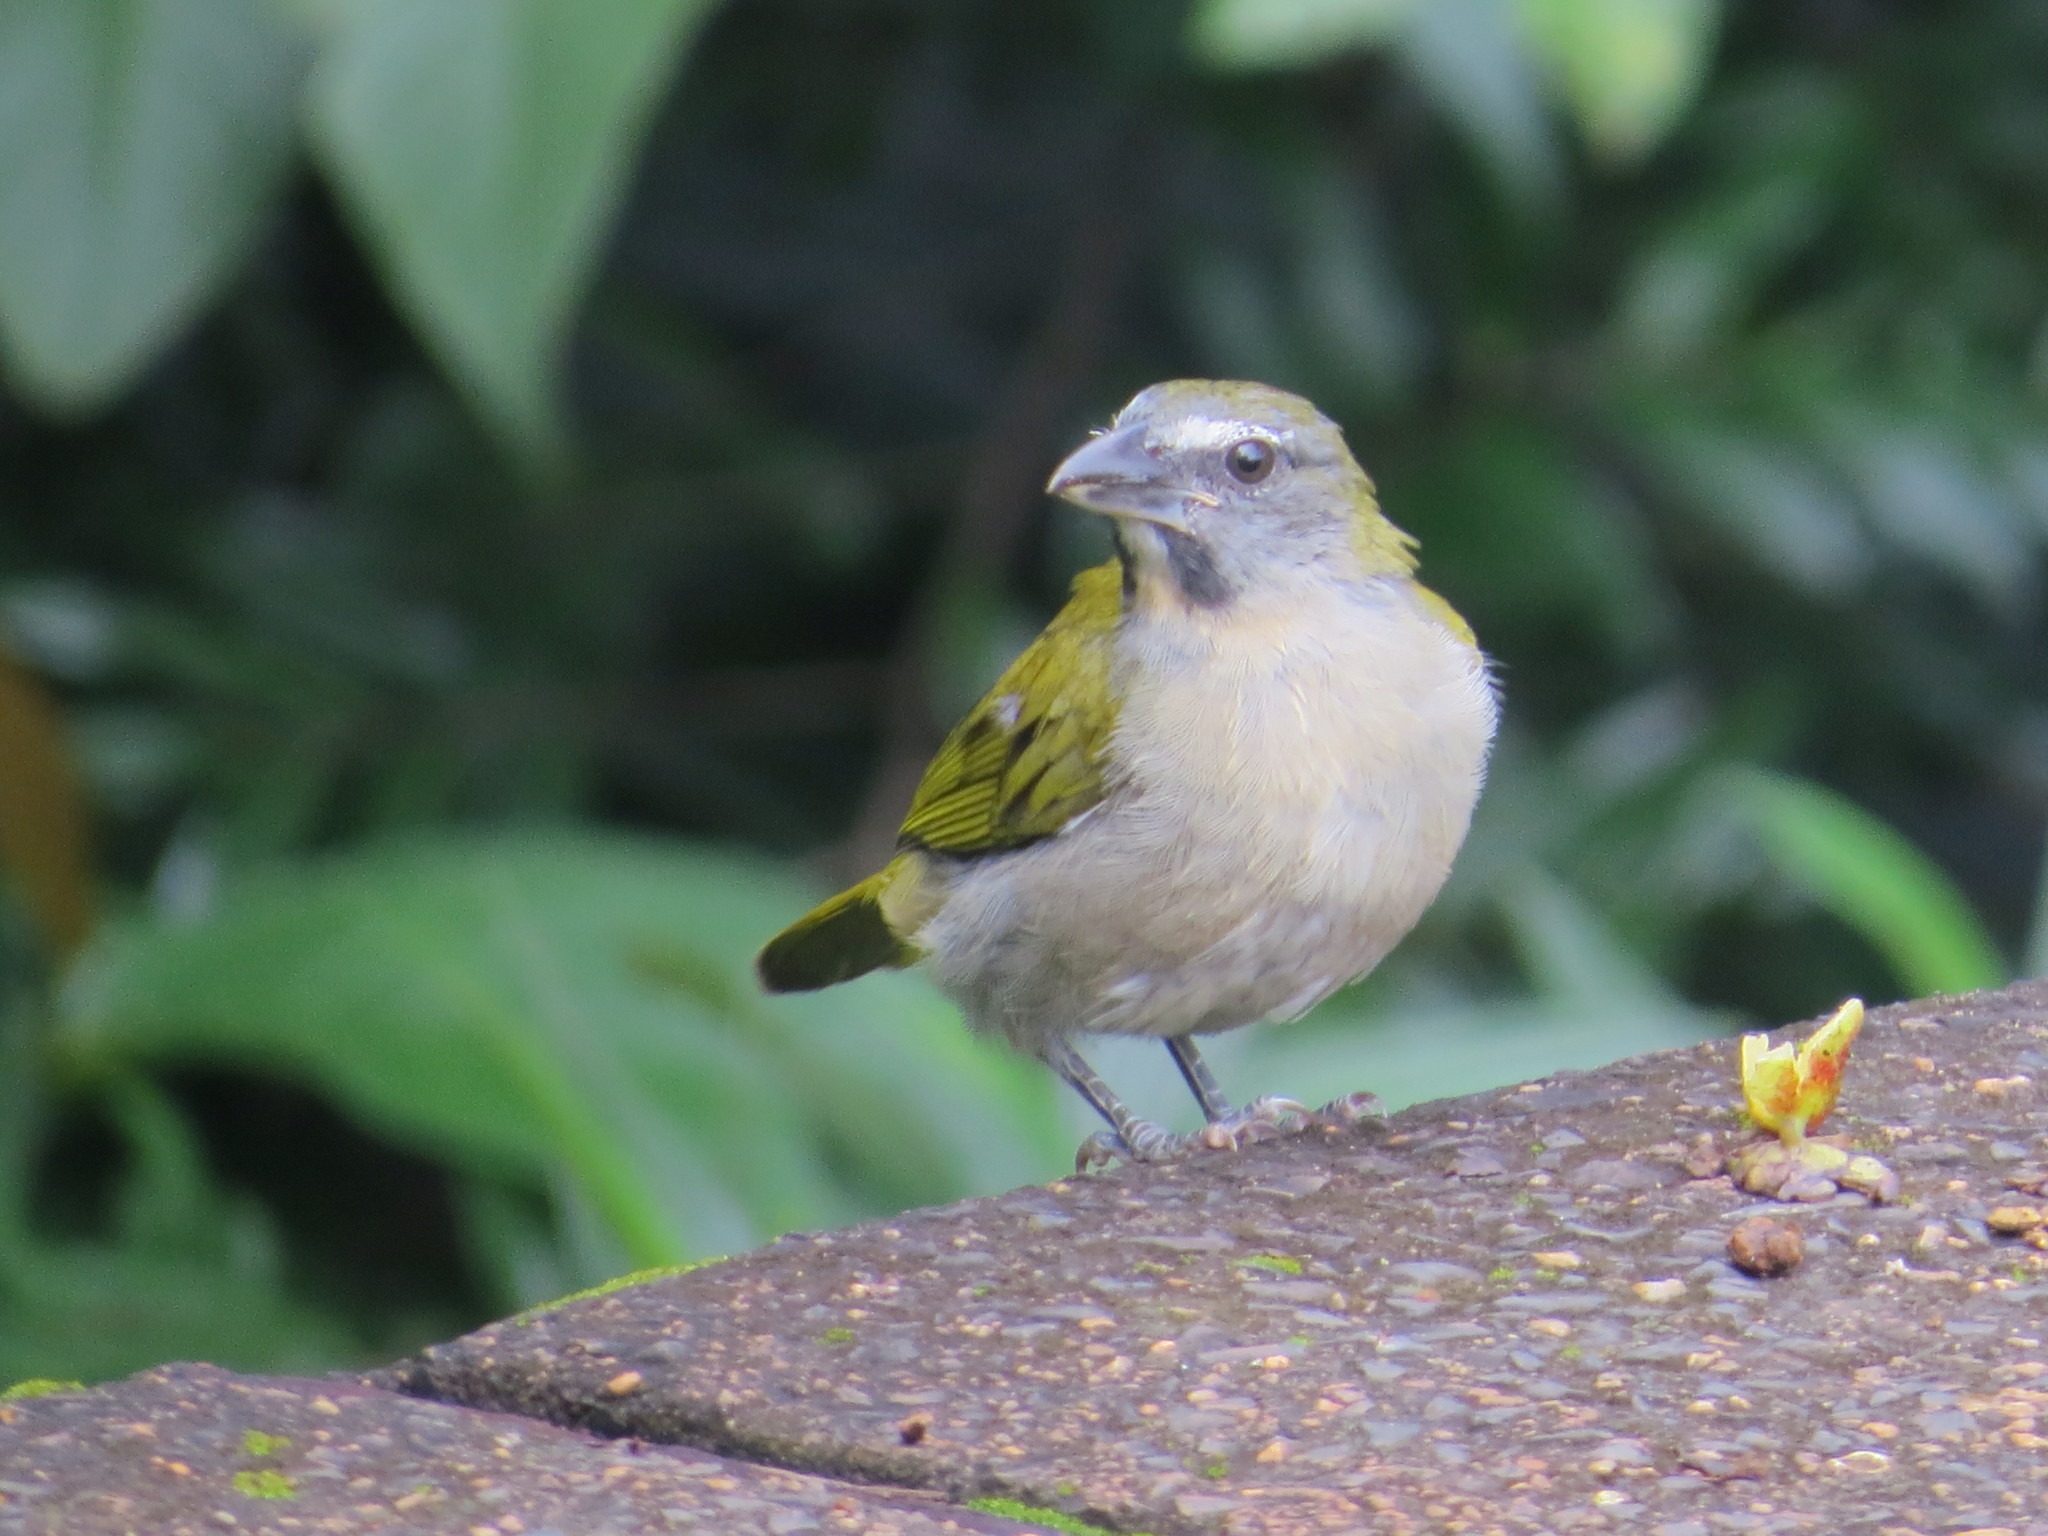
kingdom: Animalia
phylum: Chordata
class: Aves
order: Passeriformes
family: Thraupidae
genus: Saltator
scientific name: Saltator maximus
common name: Buff-throated saltator
